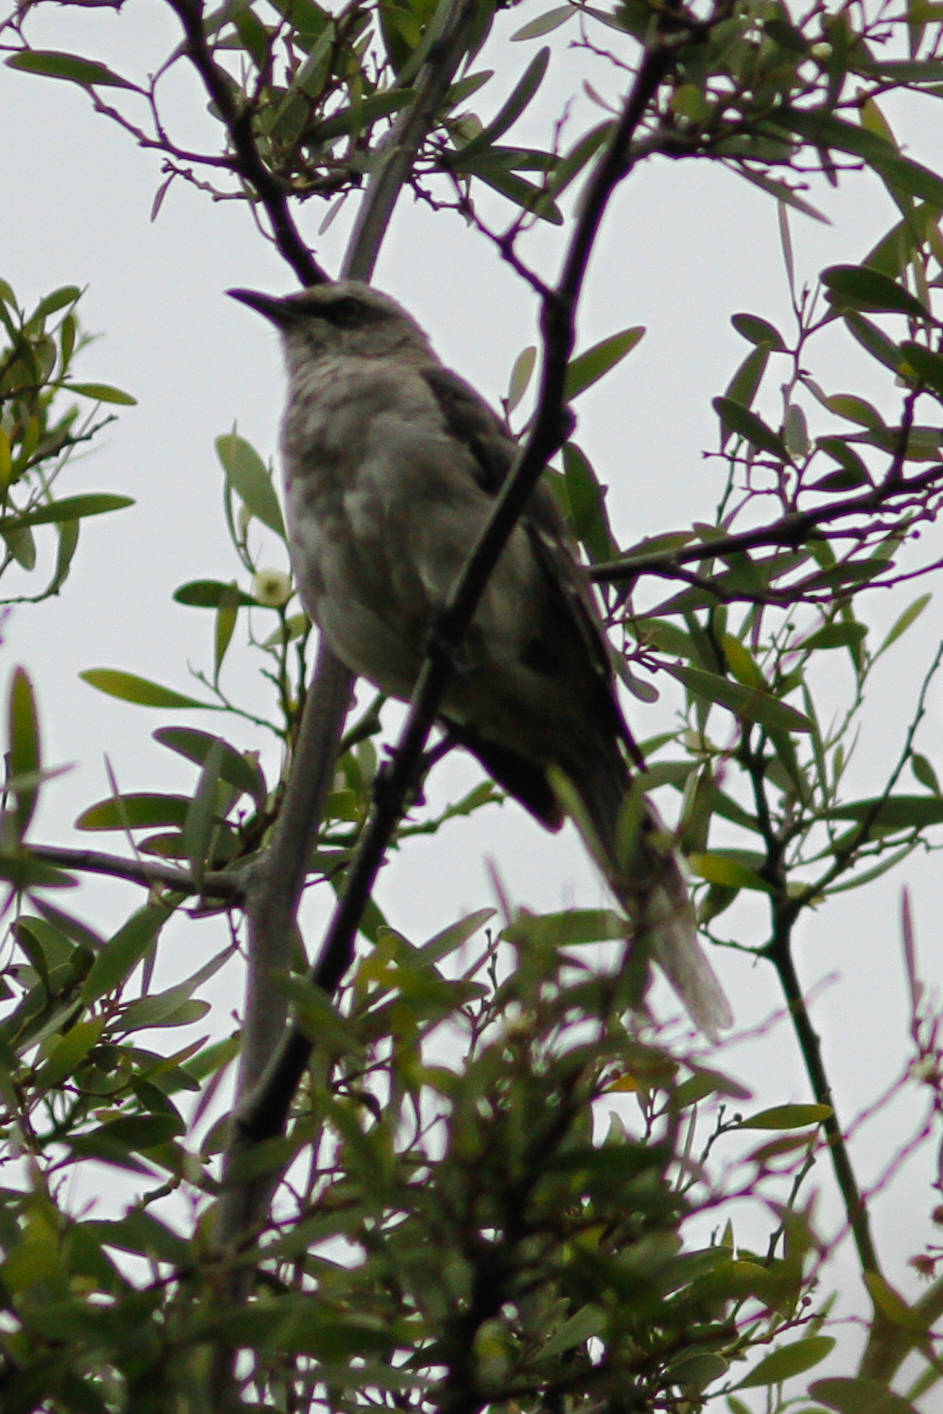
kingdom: Animalia
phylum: Chordata
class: Aves
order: Passeriformes
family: Mimidae
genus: Mimus
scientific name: Mimus gilvus
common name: Tropical mockingbird
